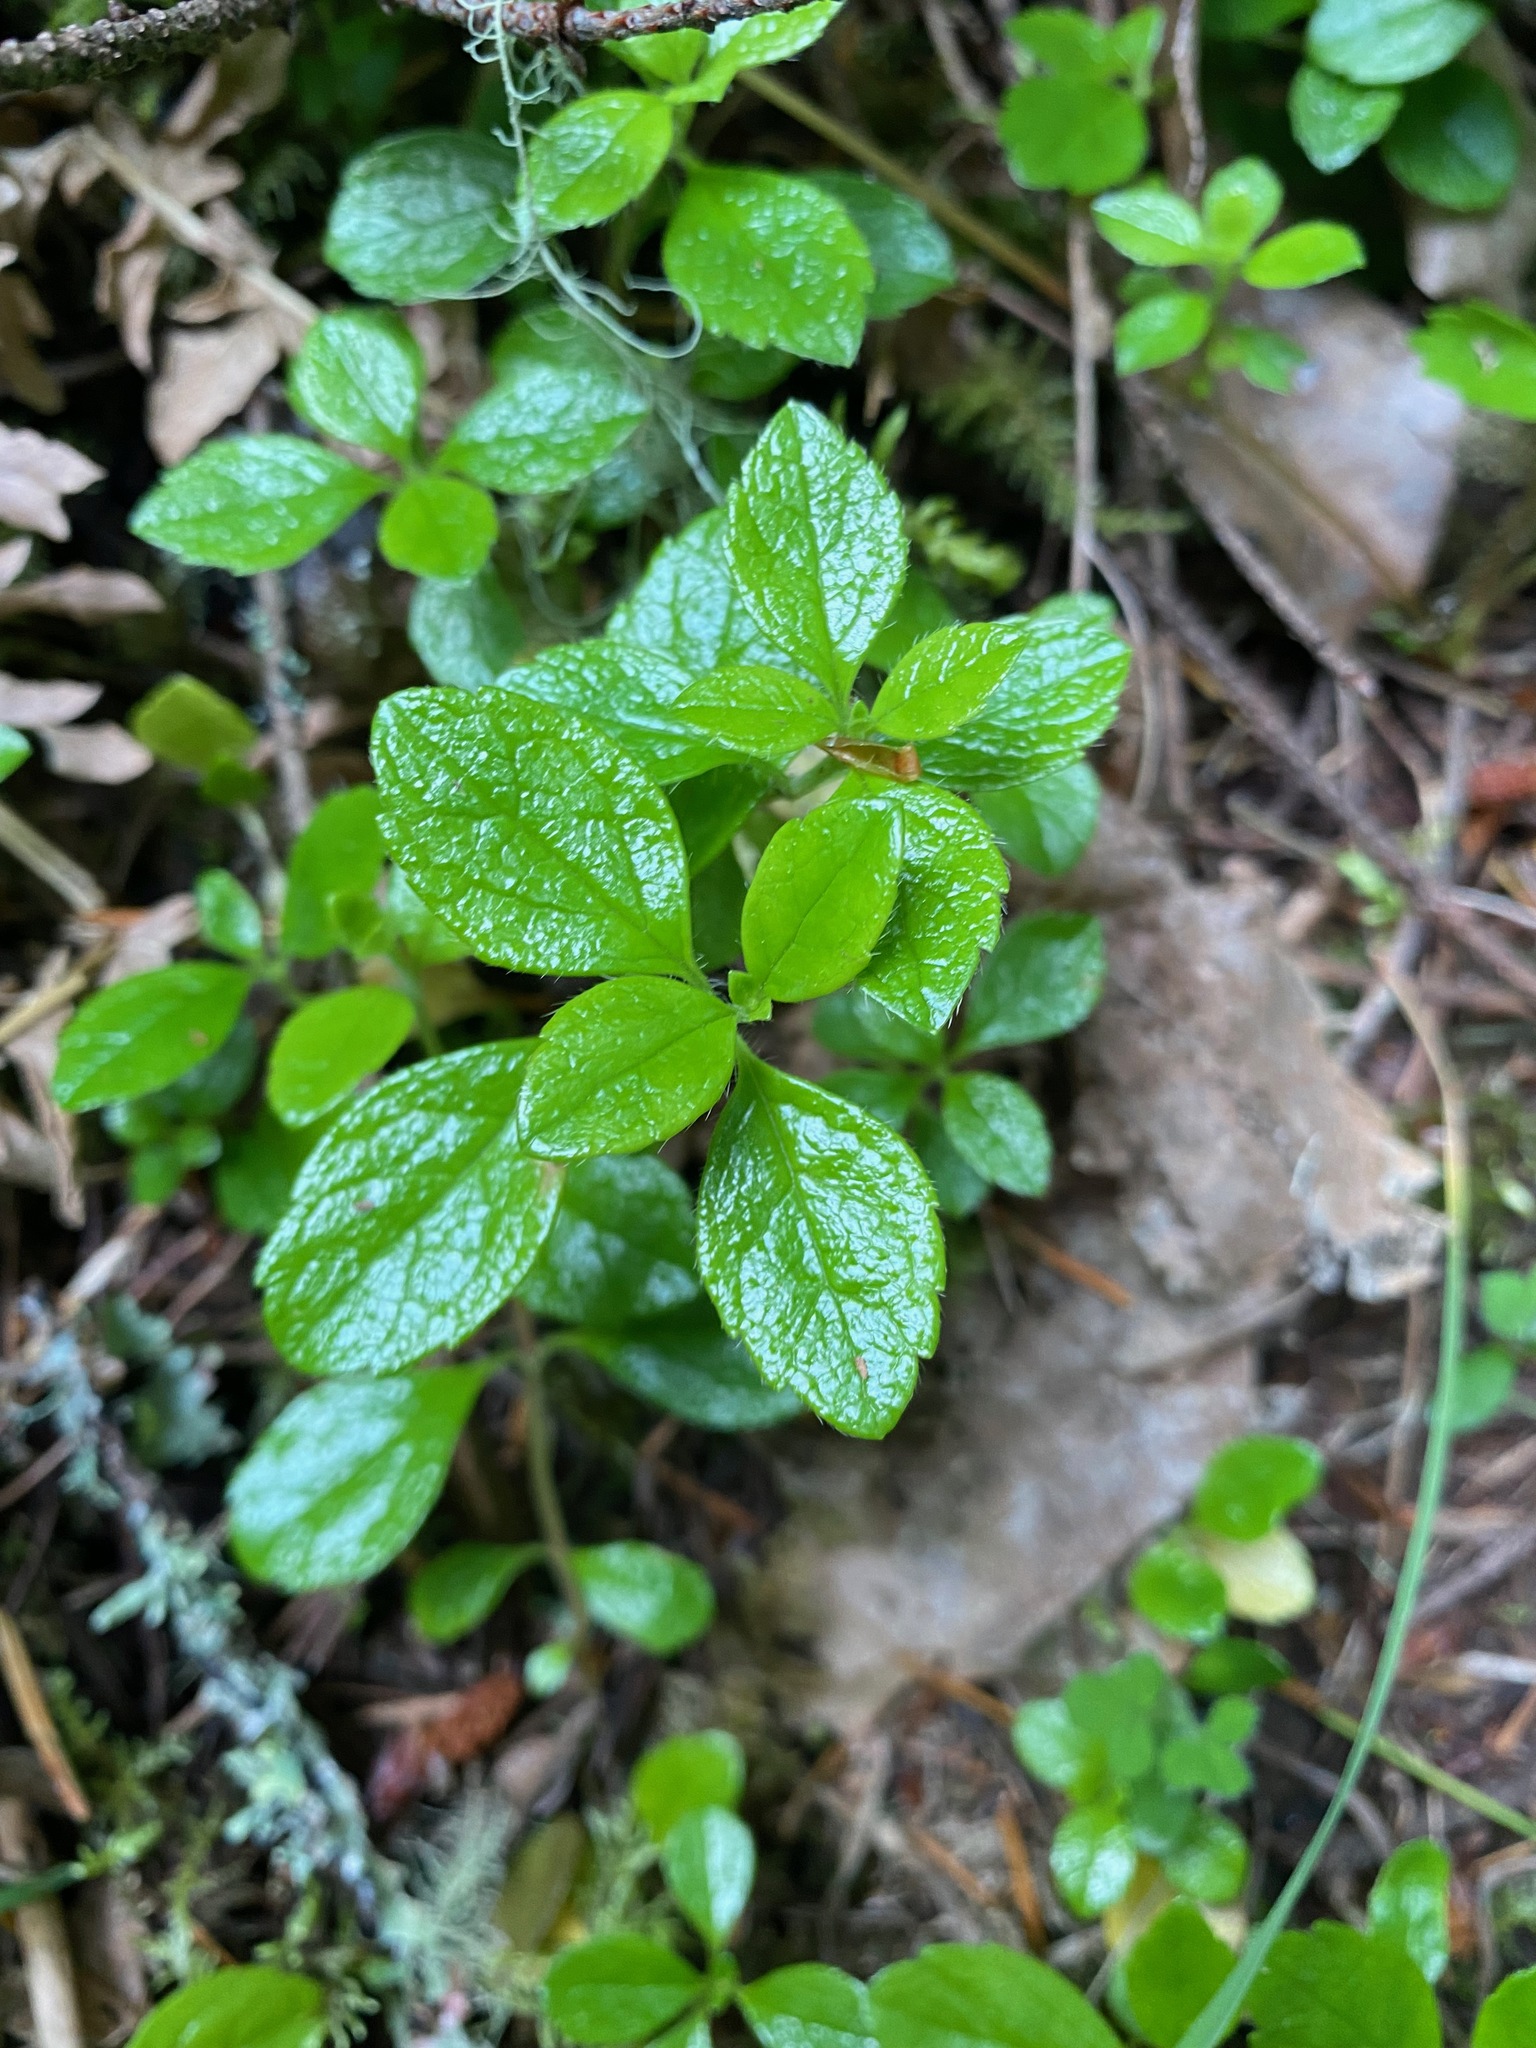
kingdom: Plantae
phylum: Tracheophyta
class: Magnoliopsida
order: Dipsacales
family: Caprifoliaceae
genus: Linnaea
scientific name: Linnaea borealis
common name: Twinflower
